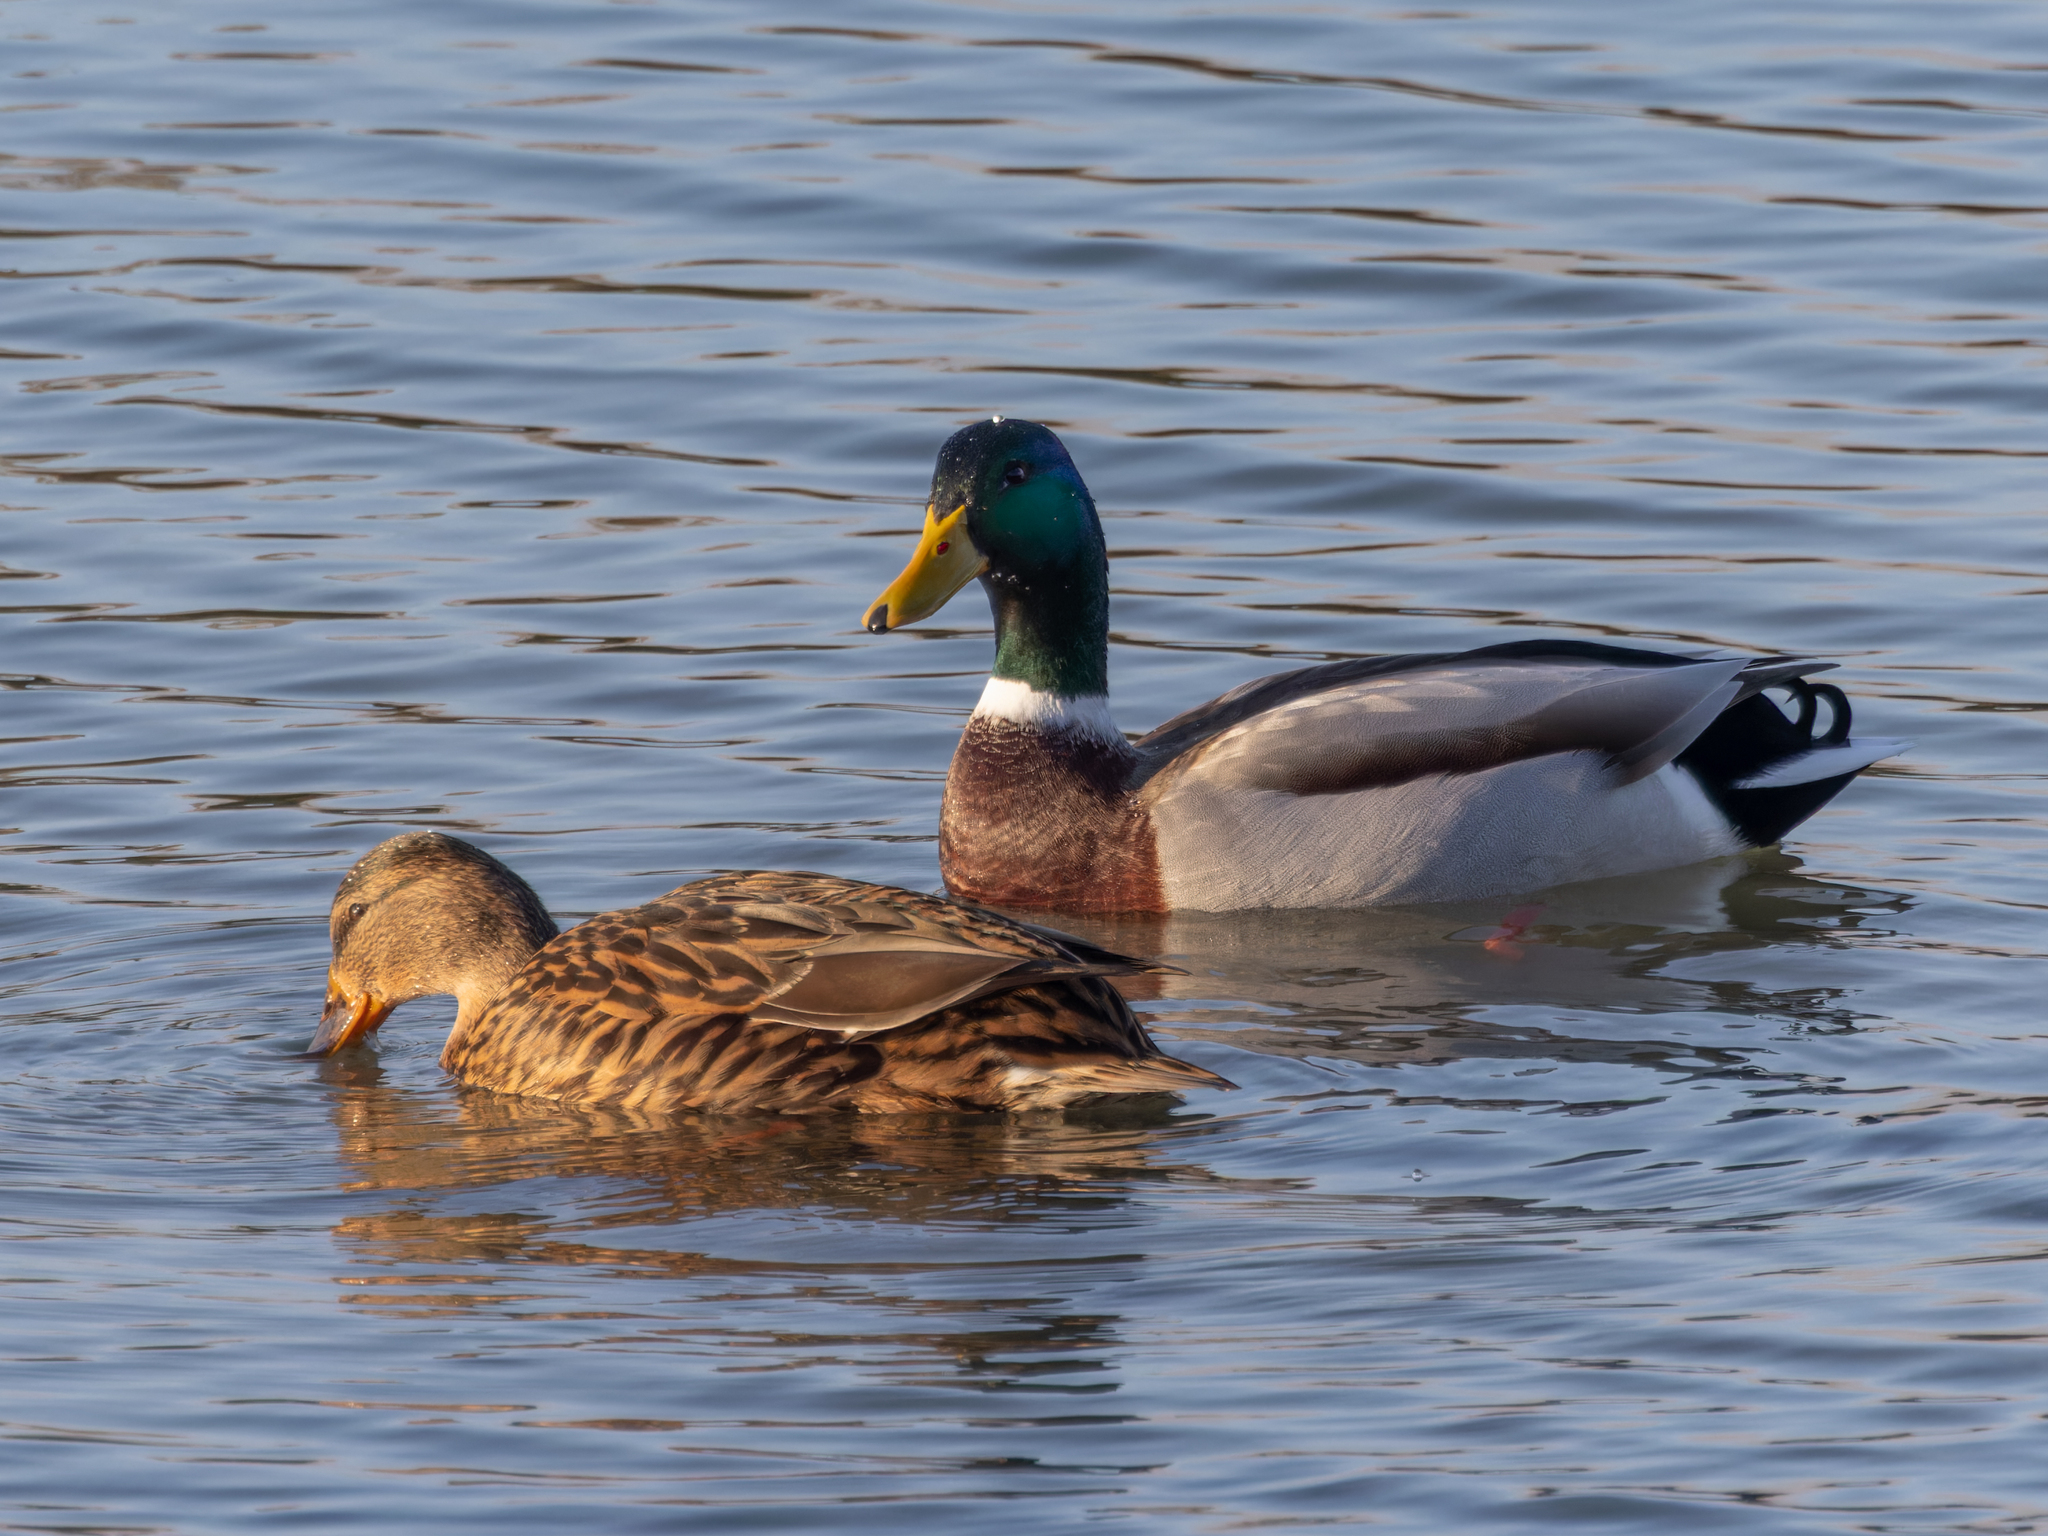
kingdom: Animalia
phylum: Chordata
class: Aves
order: Anseriformes
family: Anatidae
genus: Anas
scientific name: Anas platyrhynchos
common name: Mallard
